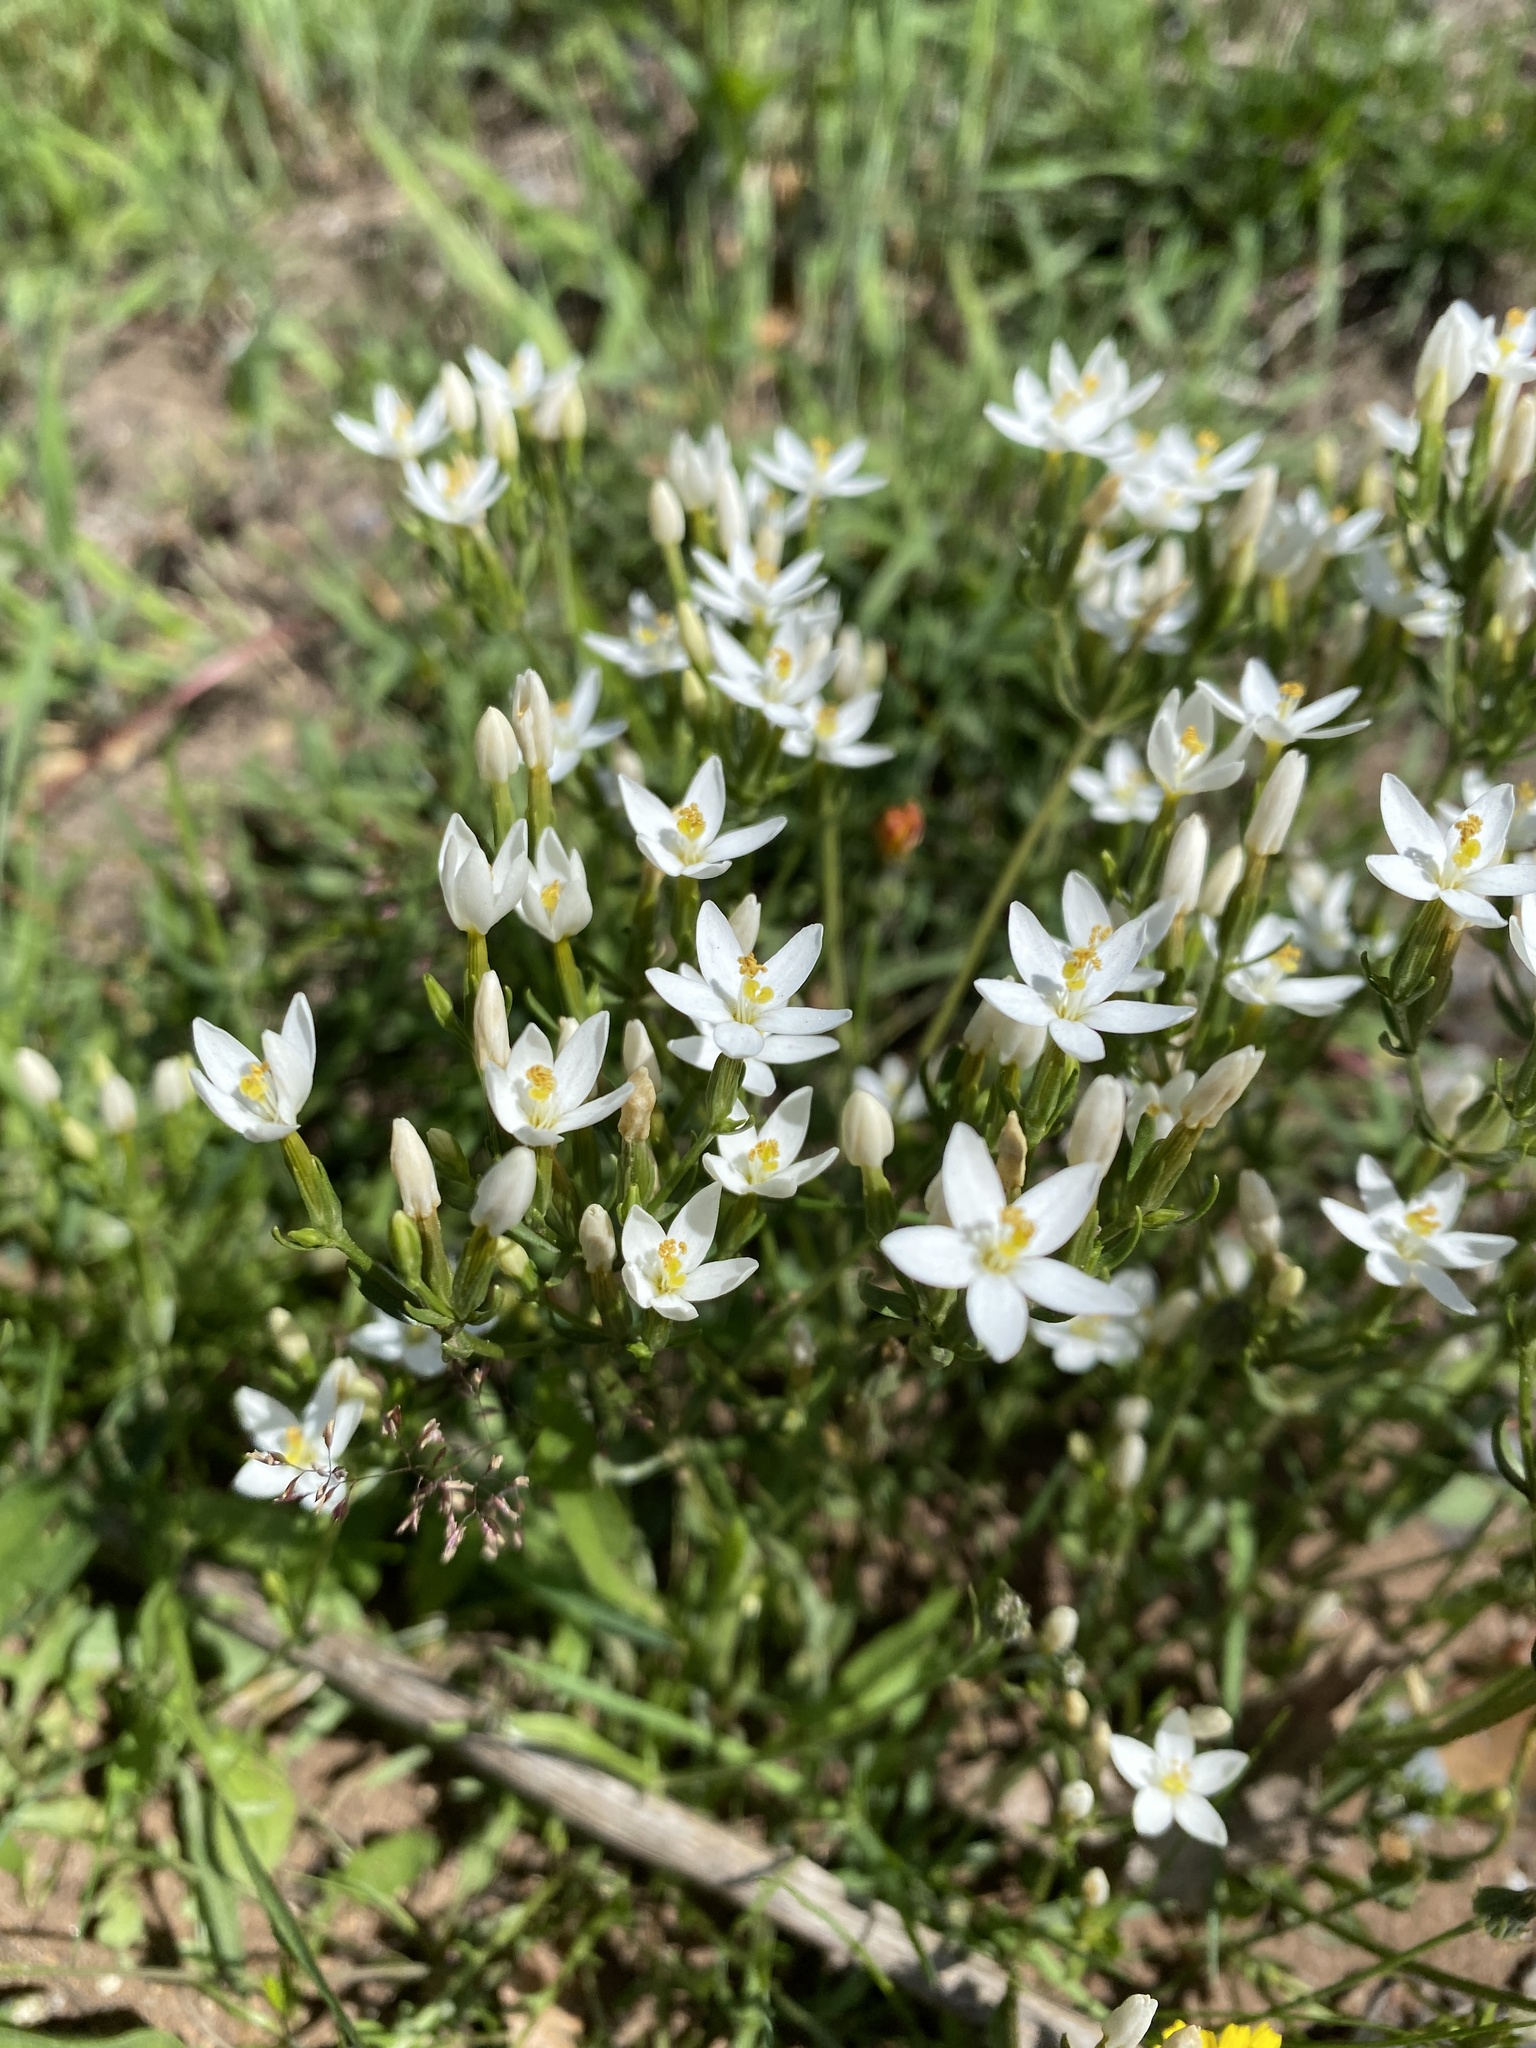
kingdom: Plantae
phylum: Tracheophyta
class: Magnoliopsida
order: Caryophyllales
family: Caryophyllaceae
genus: Spergula
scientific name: Spergula arvensis
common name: Corn spurrey
